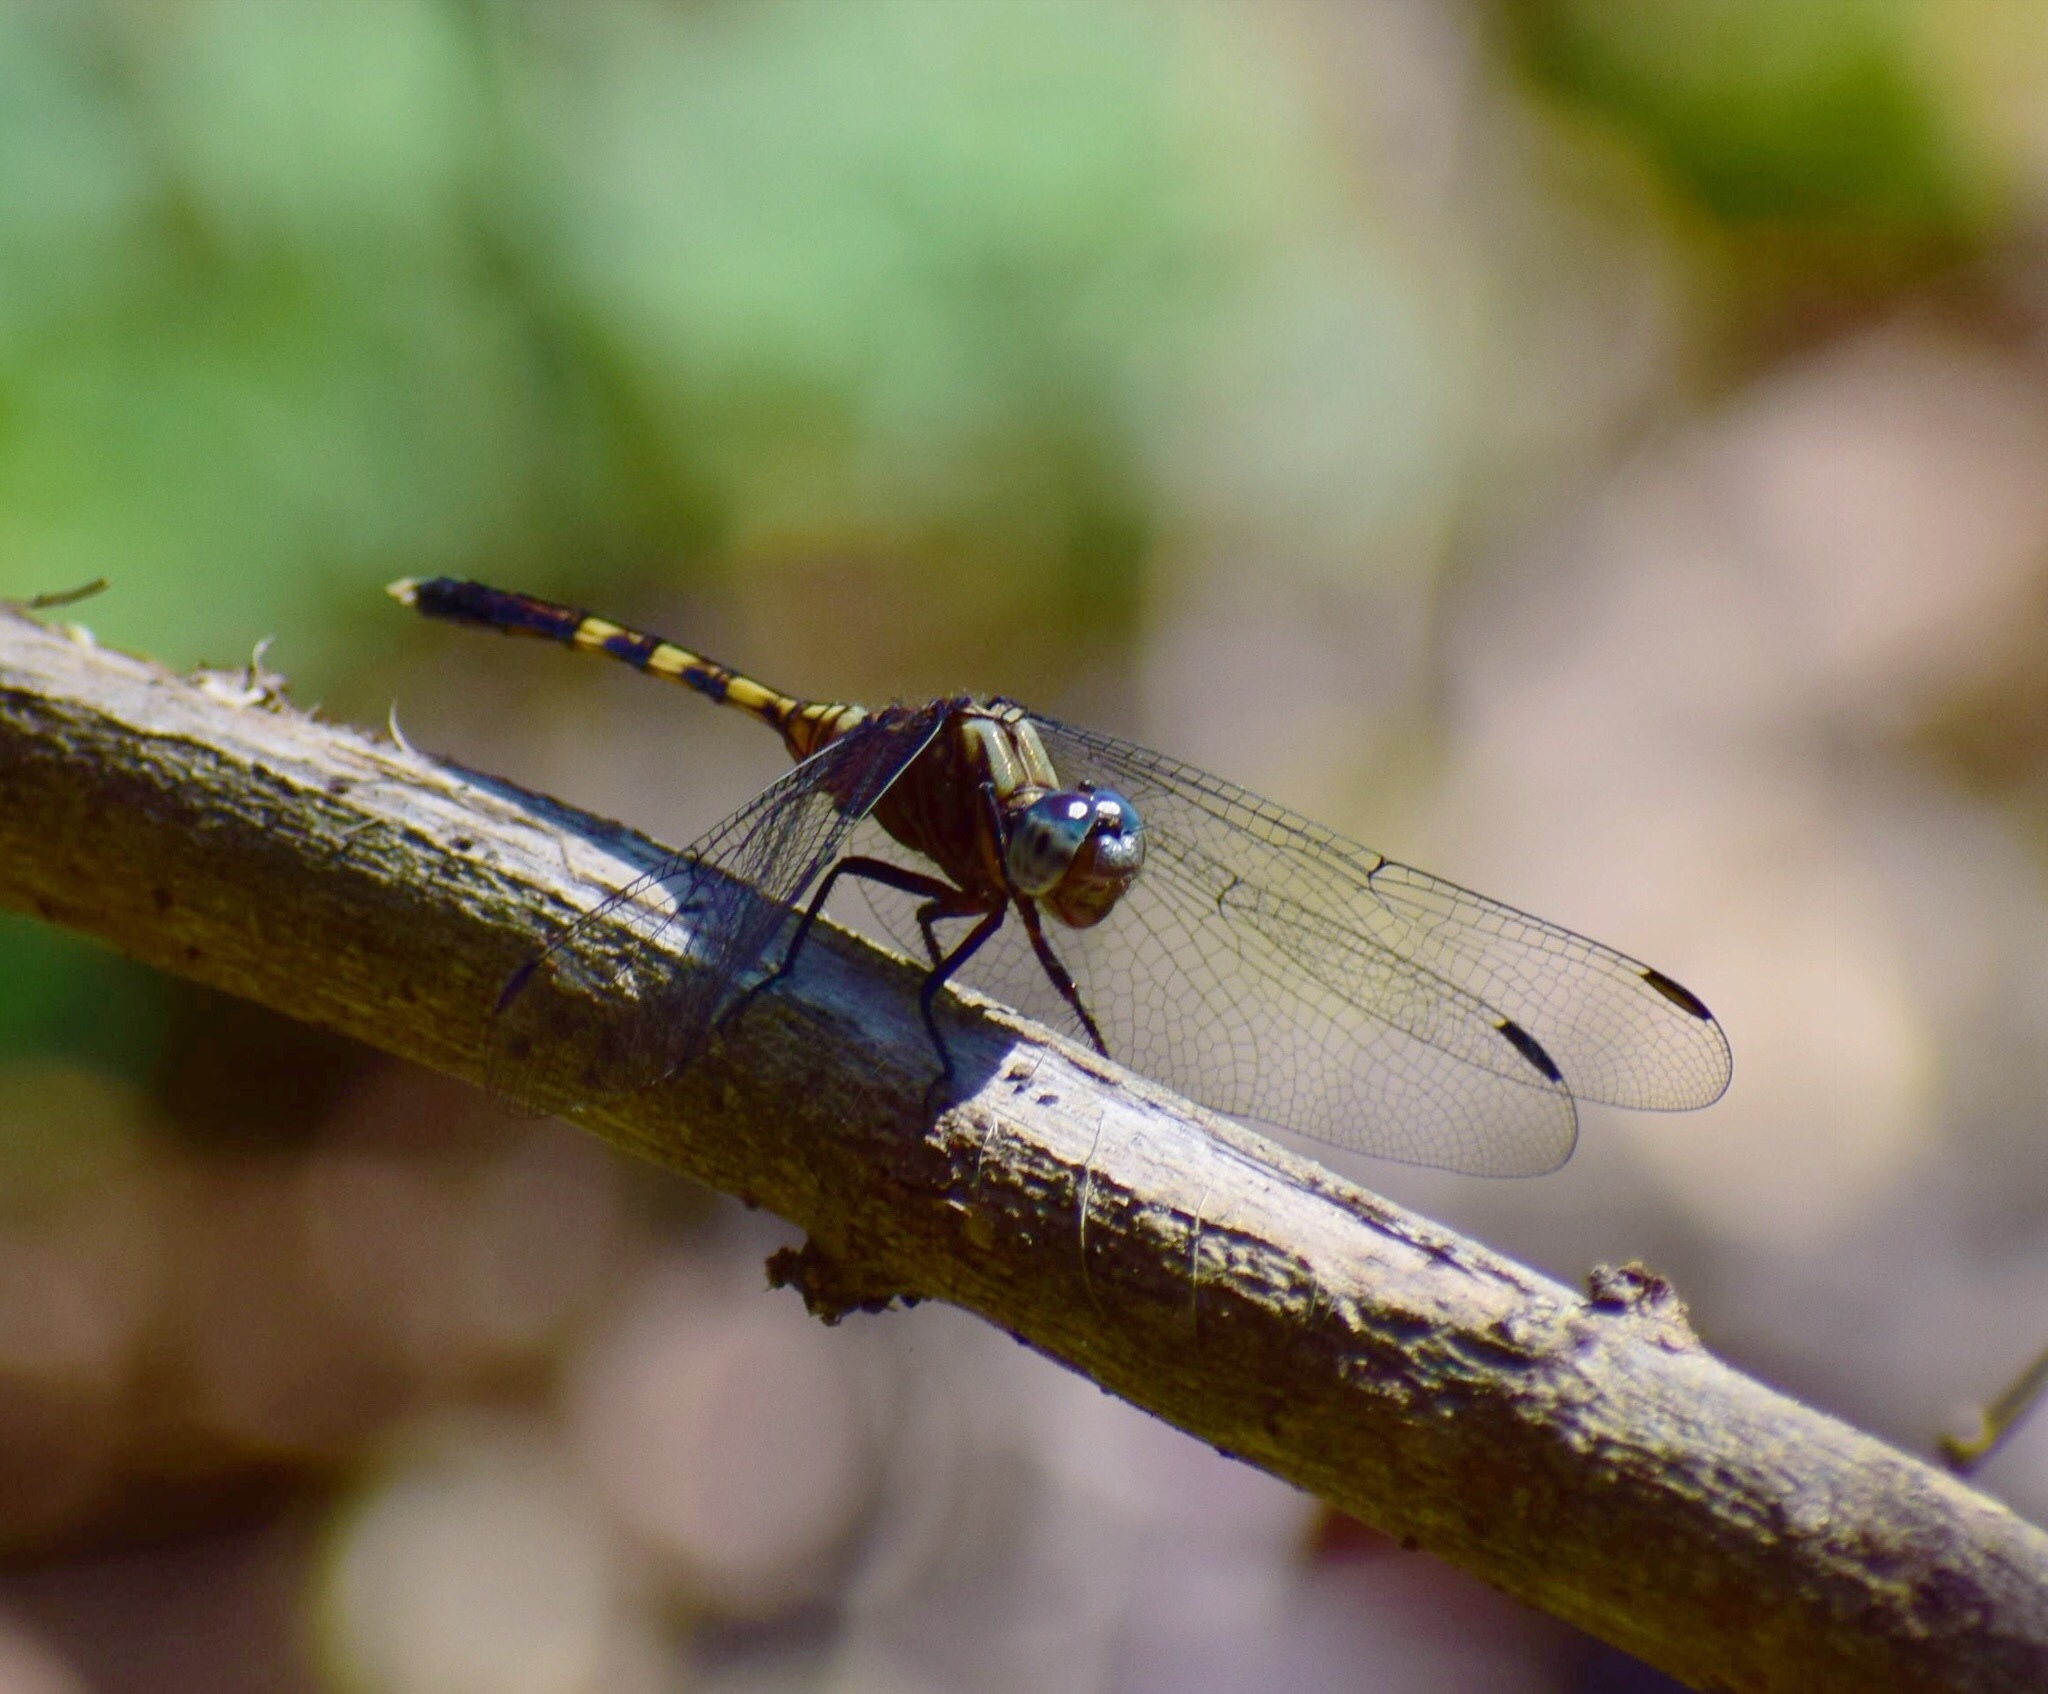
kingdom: Animalia
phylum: Arthropoda
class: Insecta
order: Odonata
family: Libellulidae
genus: Orthetrum
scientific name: Orthetrum julia
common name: Julia skimmer
